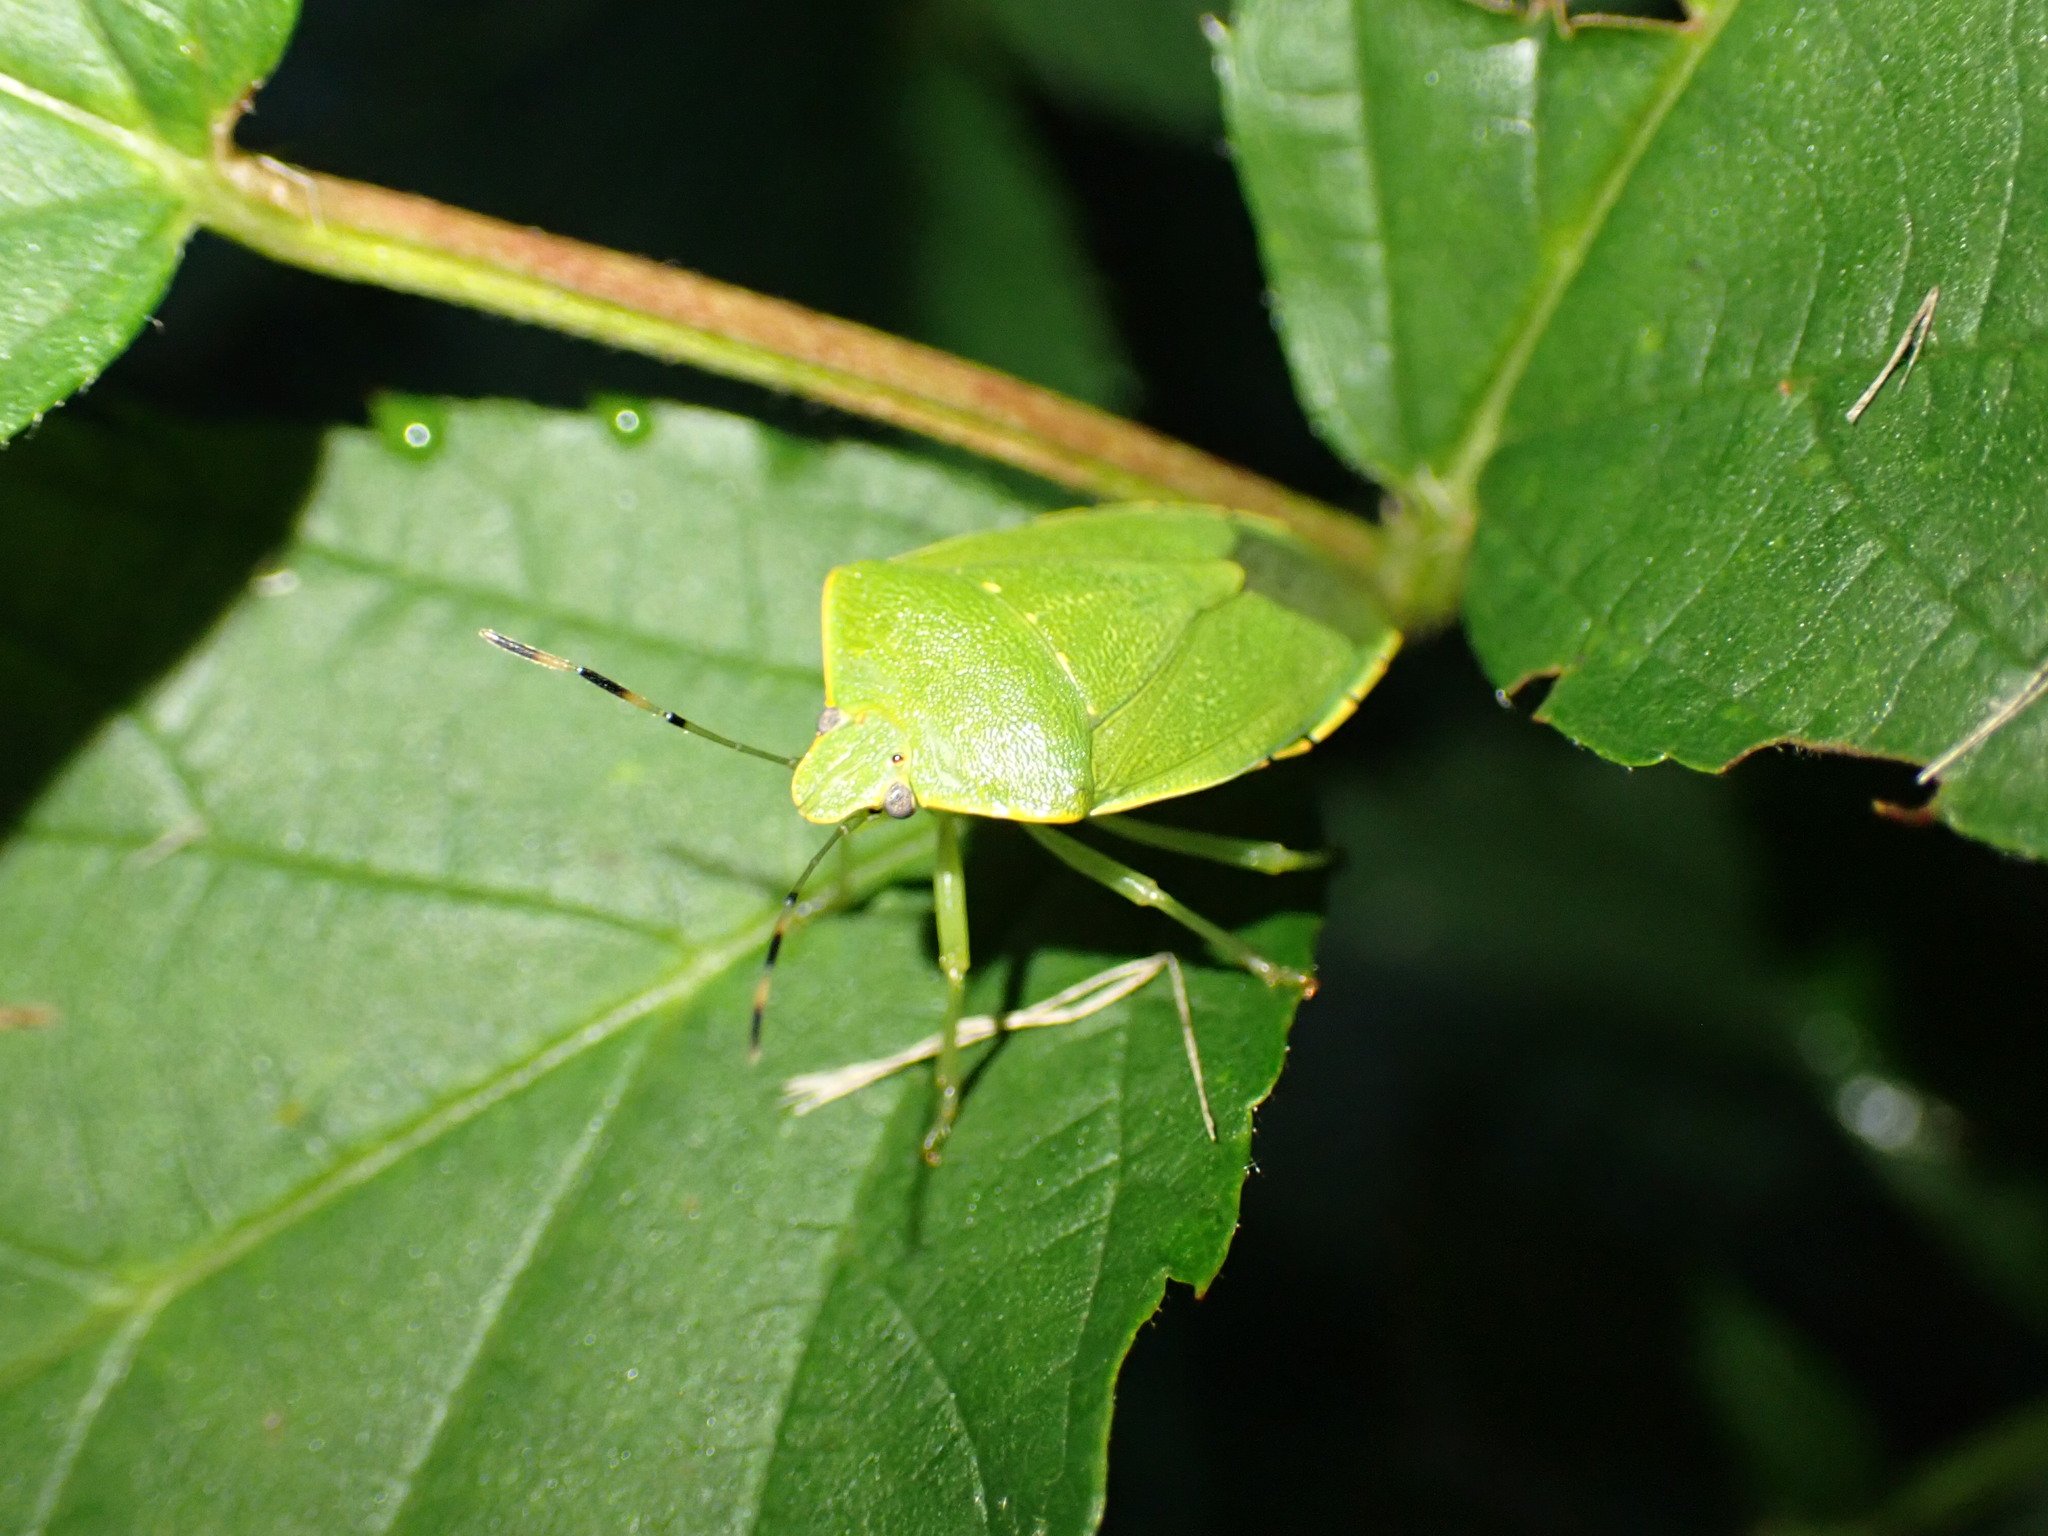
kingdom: Animalia
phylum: Arthropoda
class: Insecta
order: Hemiptera
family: Pentatomidae
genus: Chinavia
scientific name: Chinavia hilaris
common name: Green stink bug
